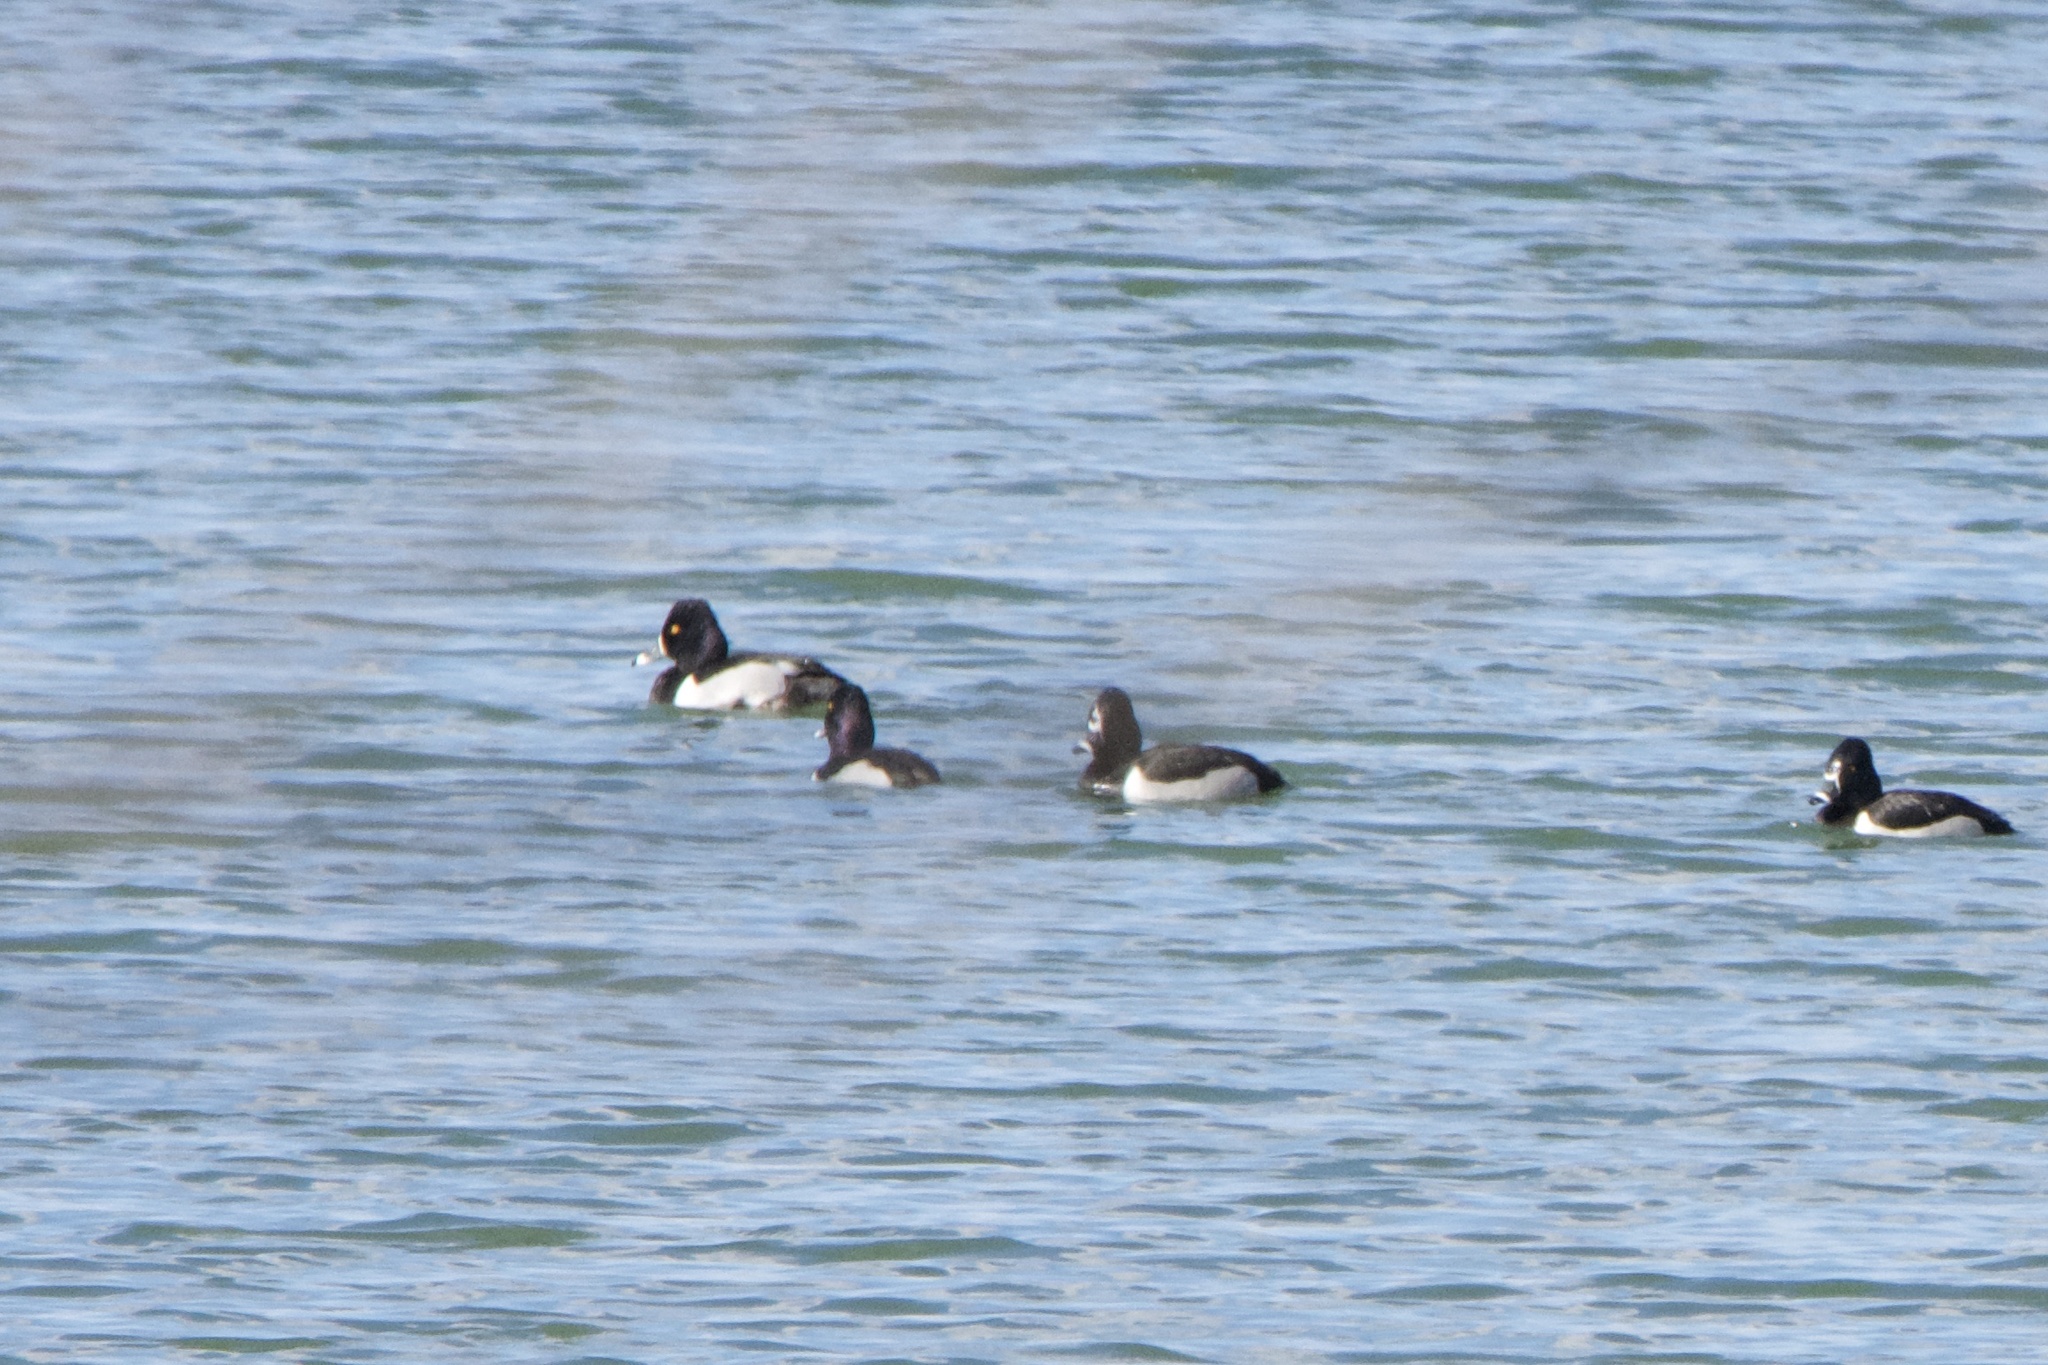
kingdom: Animalia
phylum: Chordata
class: Aves
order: Anseriformes
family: Anatidae
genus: Aythya
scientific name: Aythya collaris
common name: Ring-necked duck
